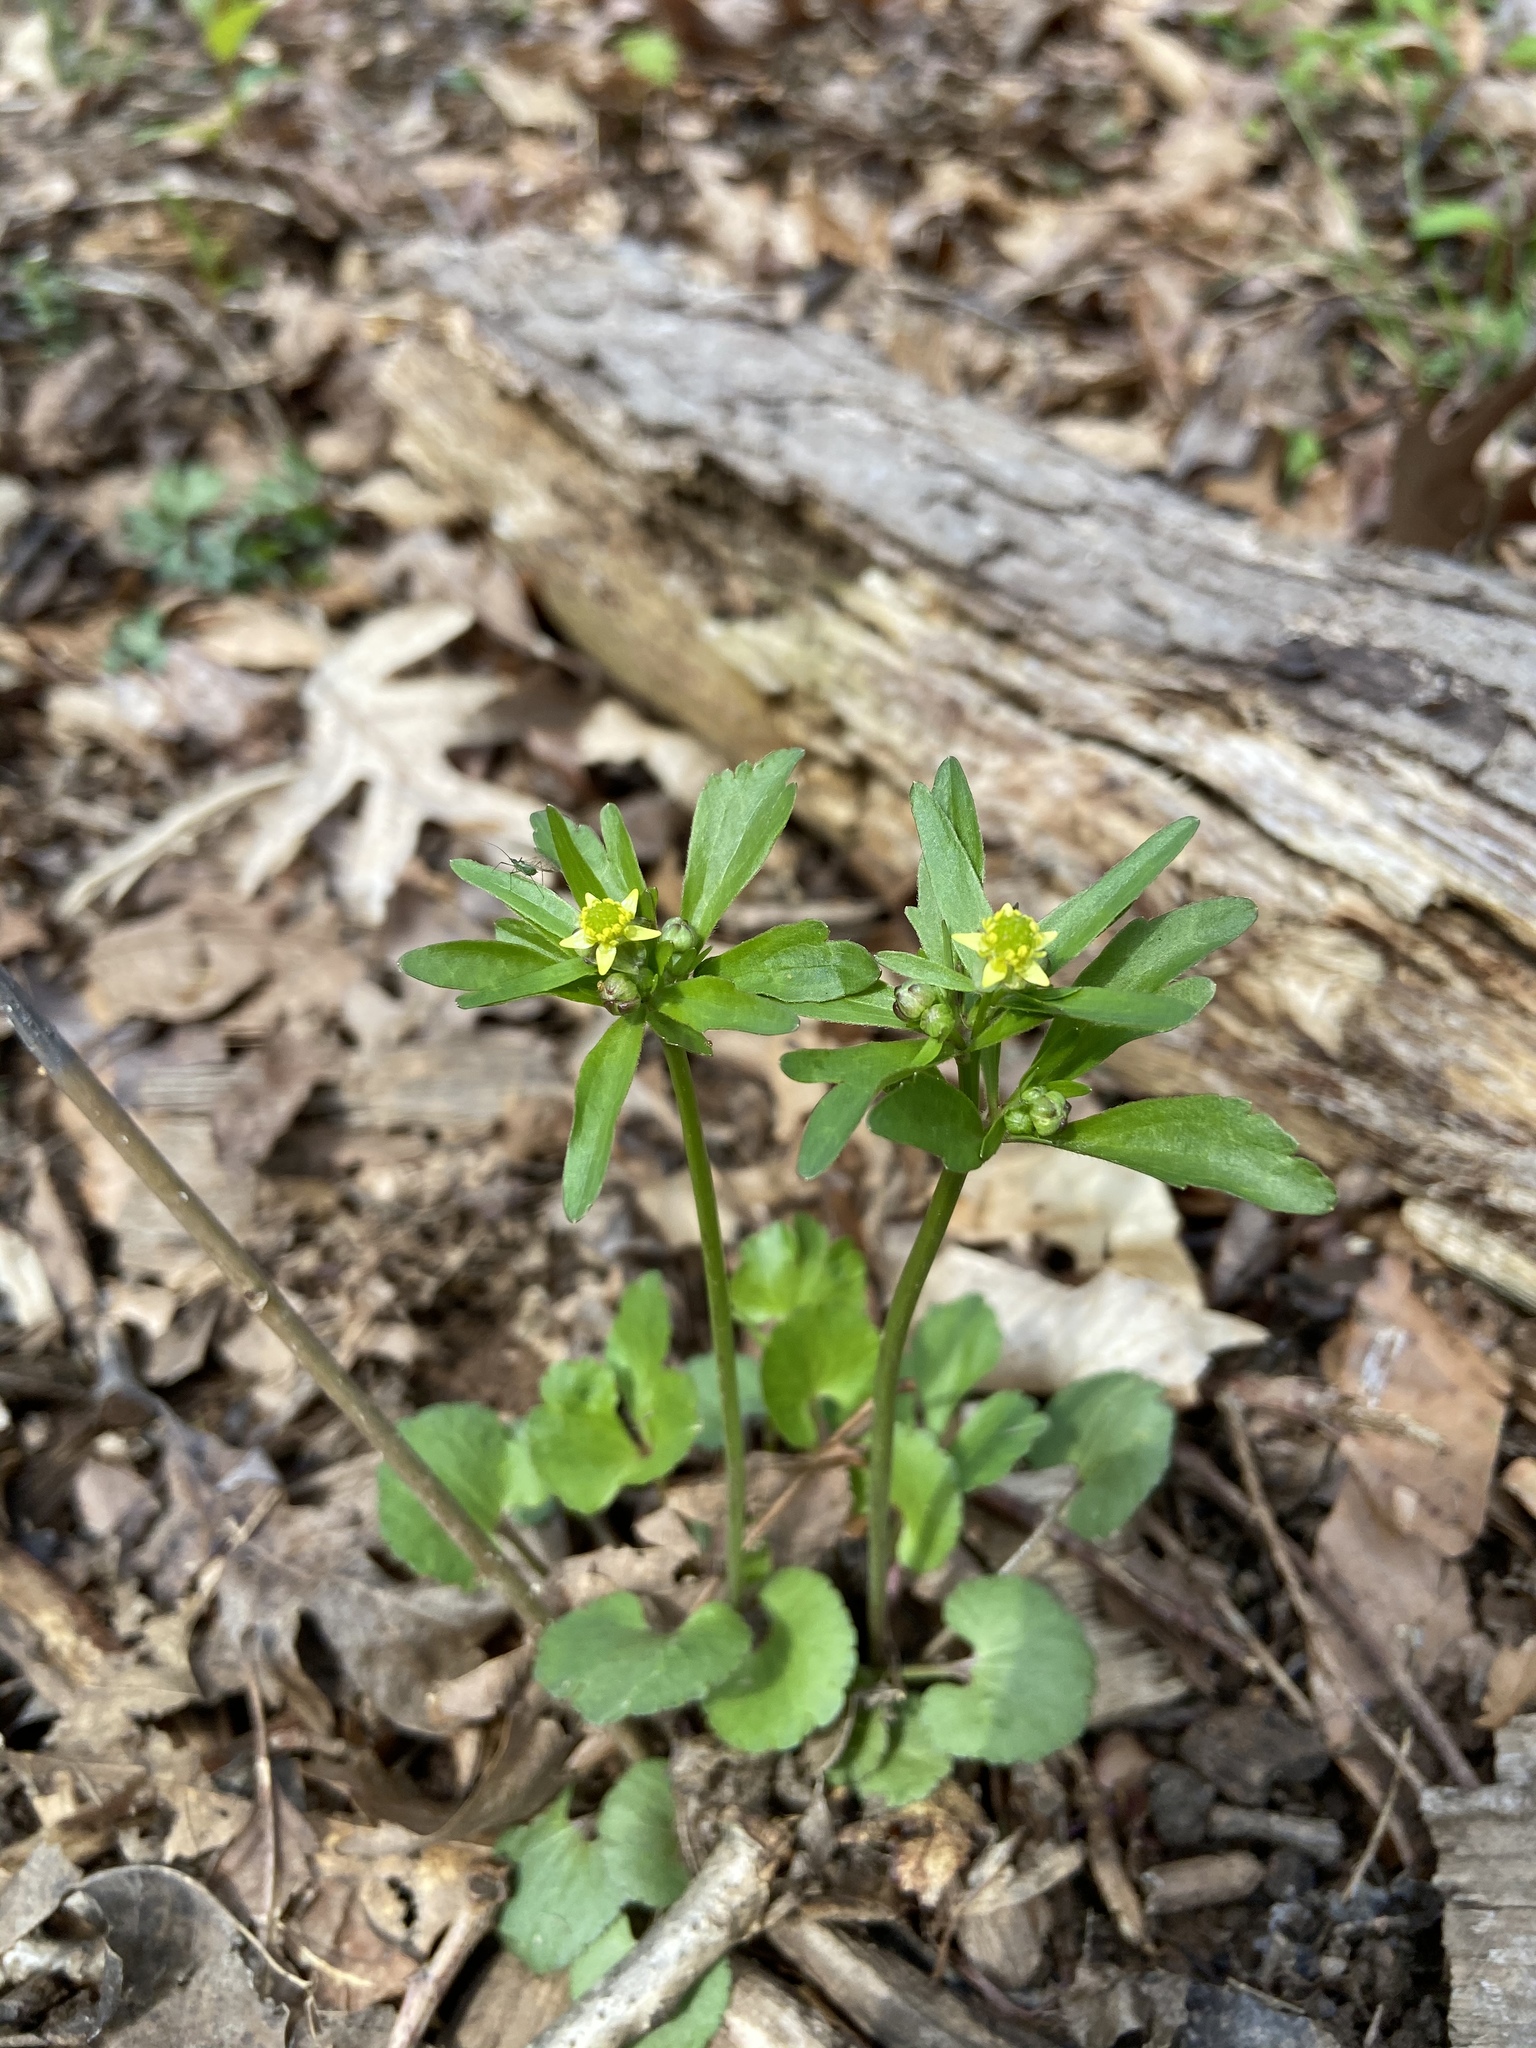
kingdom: Plantae
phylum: Tracheophyta
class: Magnoliopsida
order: Ranunculales
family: Ranunculaceae
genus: Ranunculus
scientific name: Ranunculus abortivus
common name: Early wood buttercup
